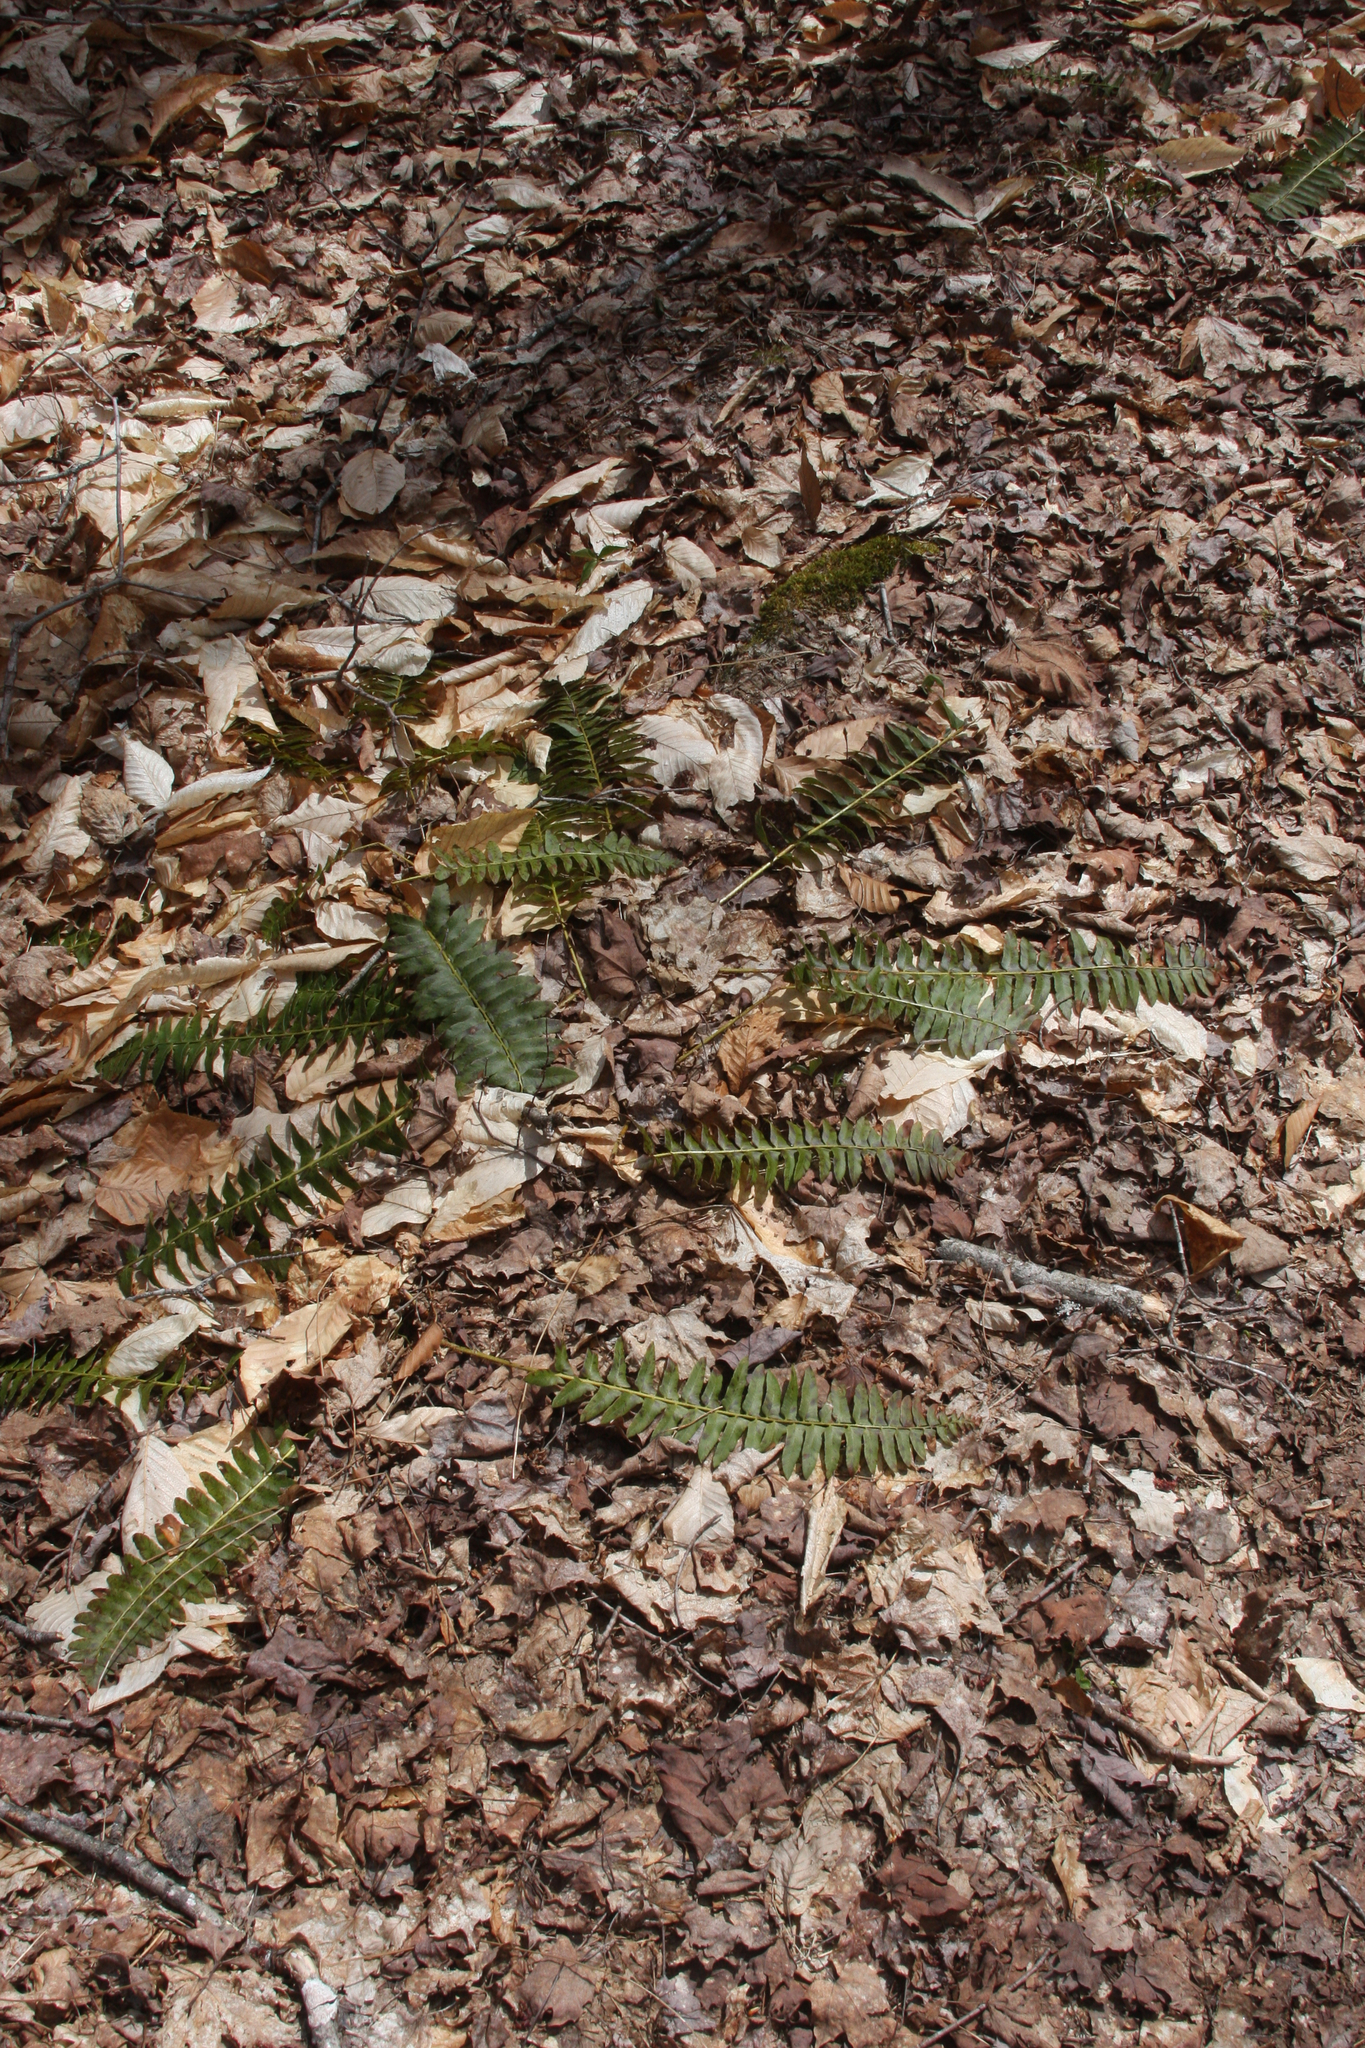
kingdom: Plantae
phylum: Tracheophyta
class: Polypodiopsida
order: Polypodiales
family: Dryopteridaceae
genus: Polystichum
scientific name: Polystichum acrostichoides
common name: Christmas fern
